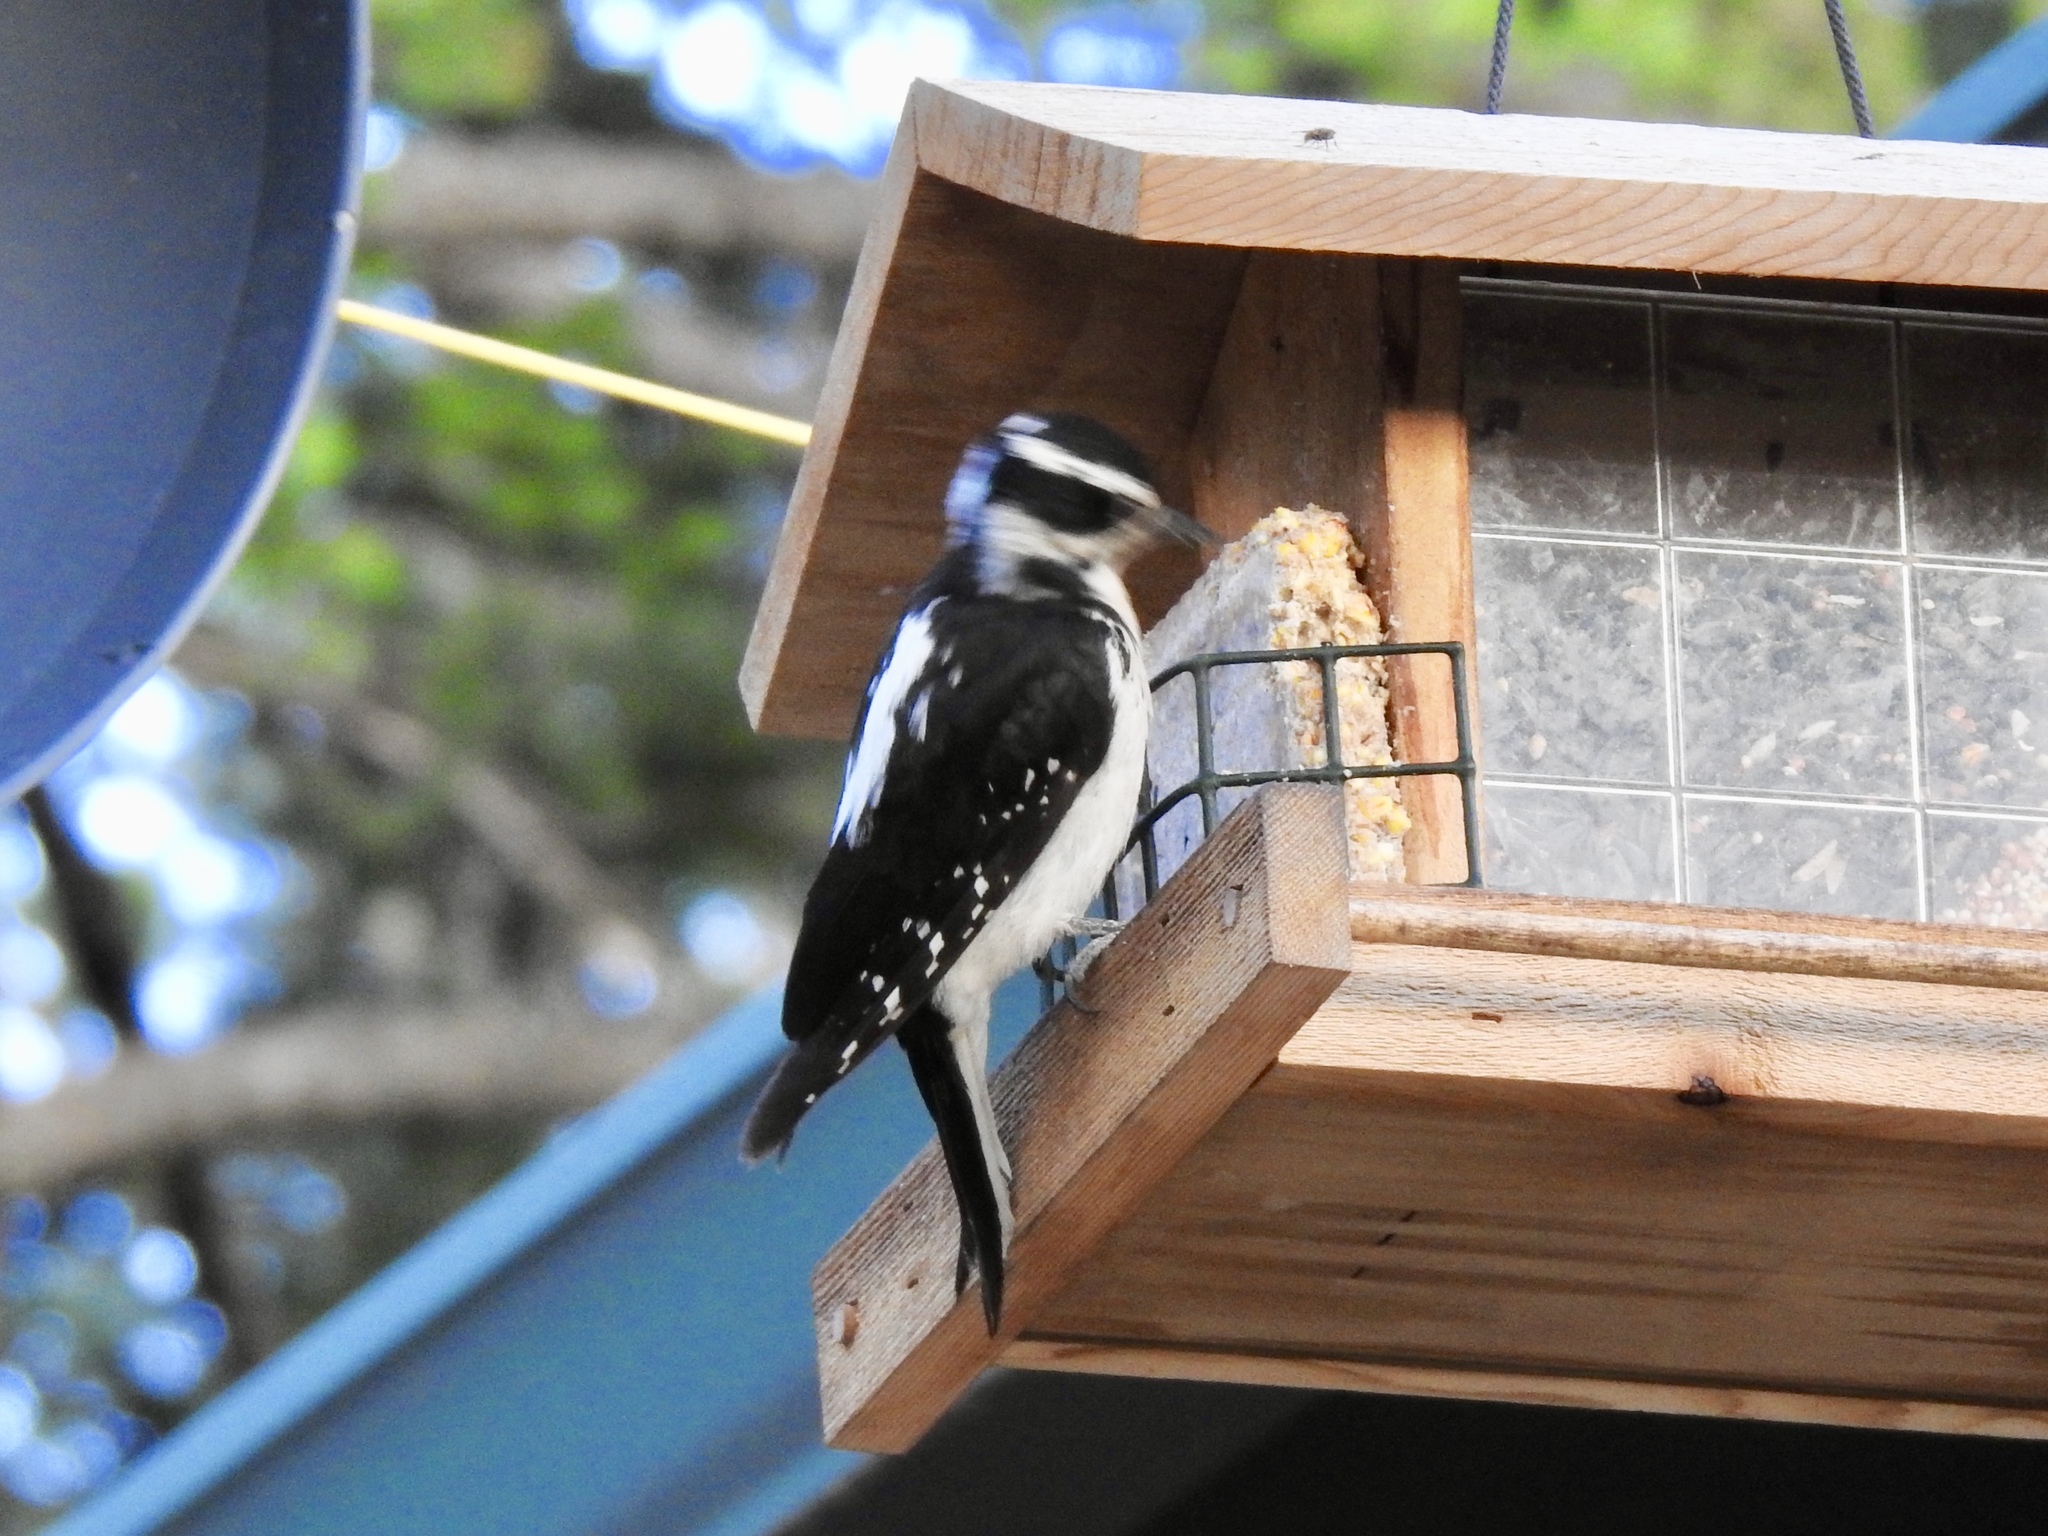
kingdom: Animalia
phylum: Chordata
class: Aves
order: Piciformes
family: Picidae
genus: Leuconotopicus
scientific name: Leuconotopicus villosus
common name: Hairy woodpecker
